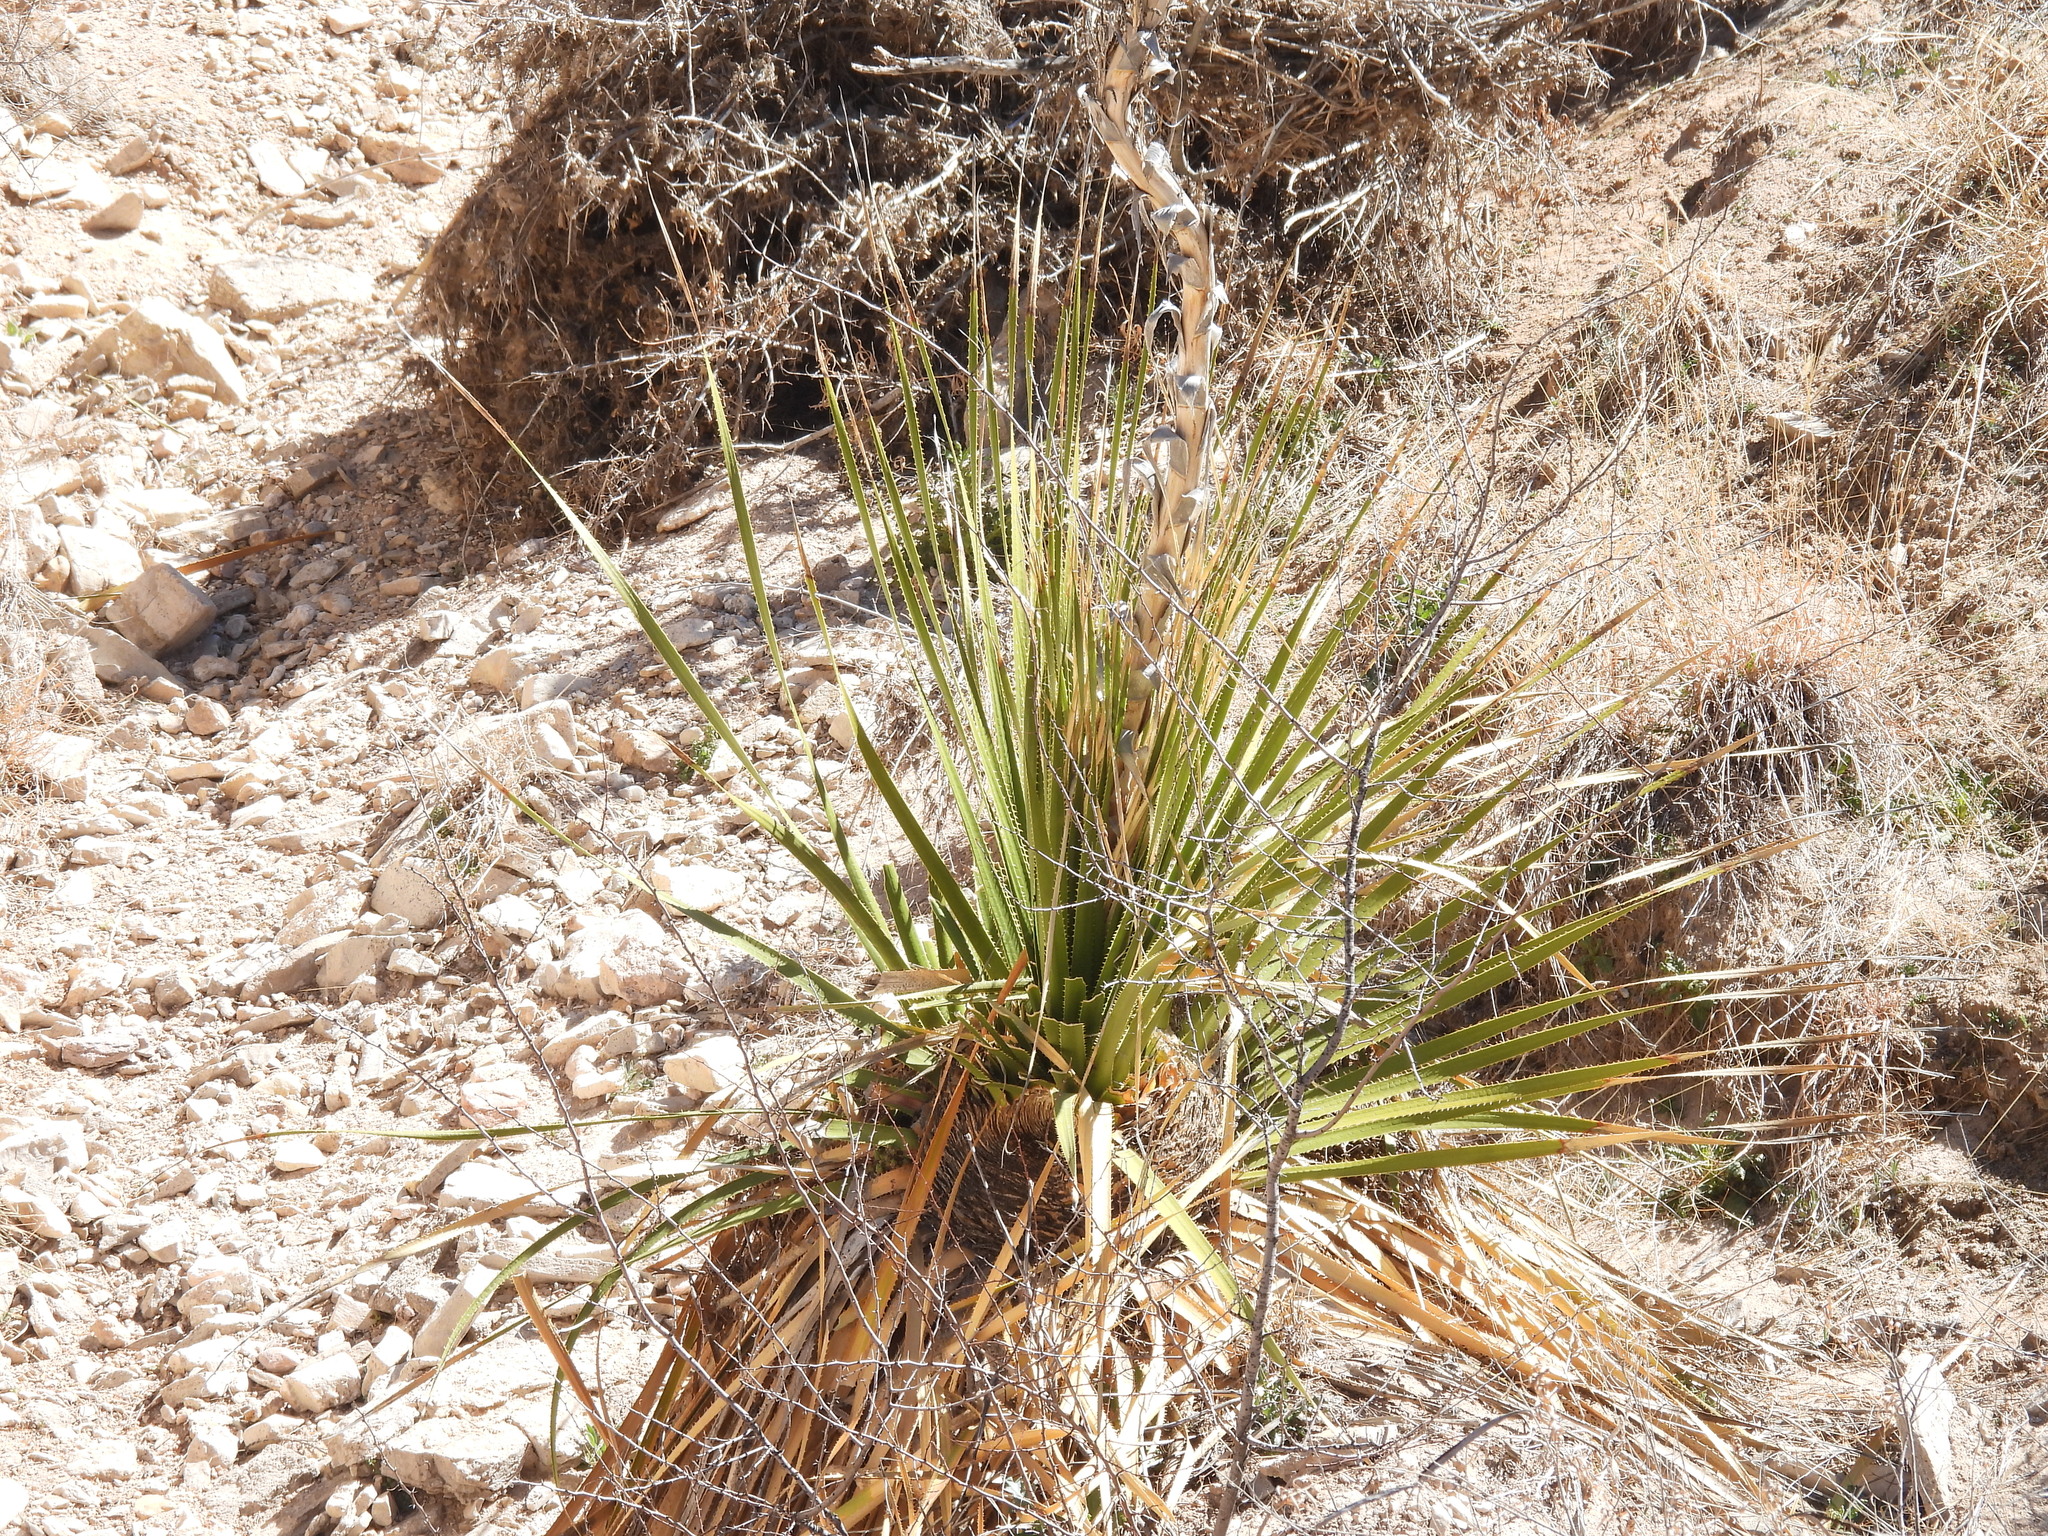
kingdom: Plantae
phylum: Tracheophyta
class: Liliopsida
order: Asparagales
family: Asparagaceae
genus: Dasylirion
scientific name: Dasylirion leiophyllum
